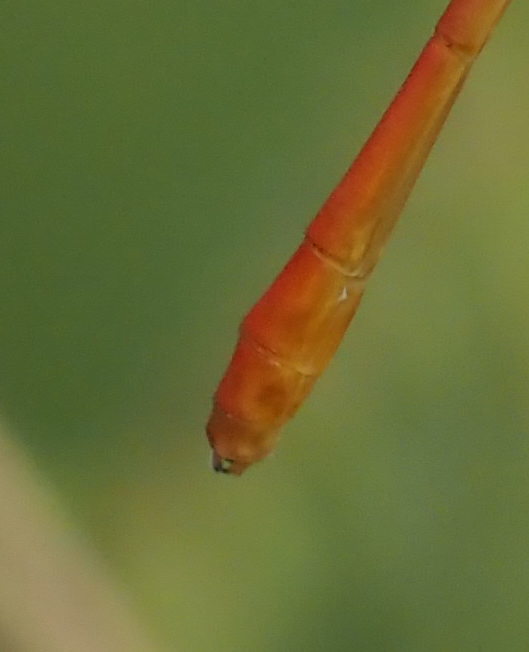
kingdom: Animalia
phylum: Arthropoda
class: Insecta
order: Odonata
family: Coenagrionidae
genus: Ceriagrion
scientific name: Ceriagrion suave
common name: Plain waxtail
